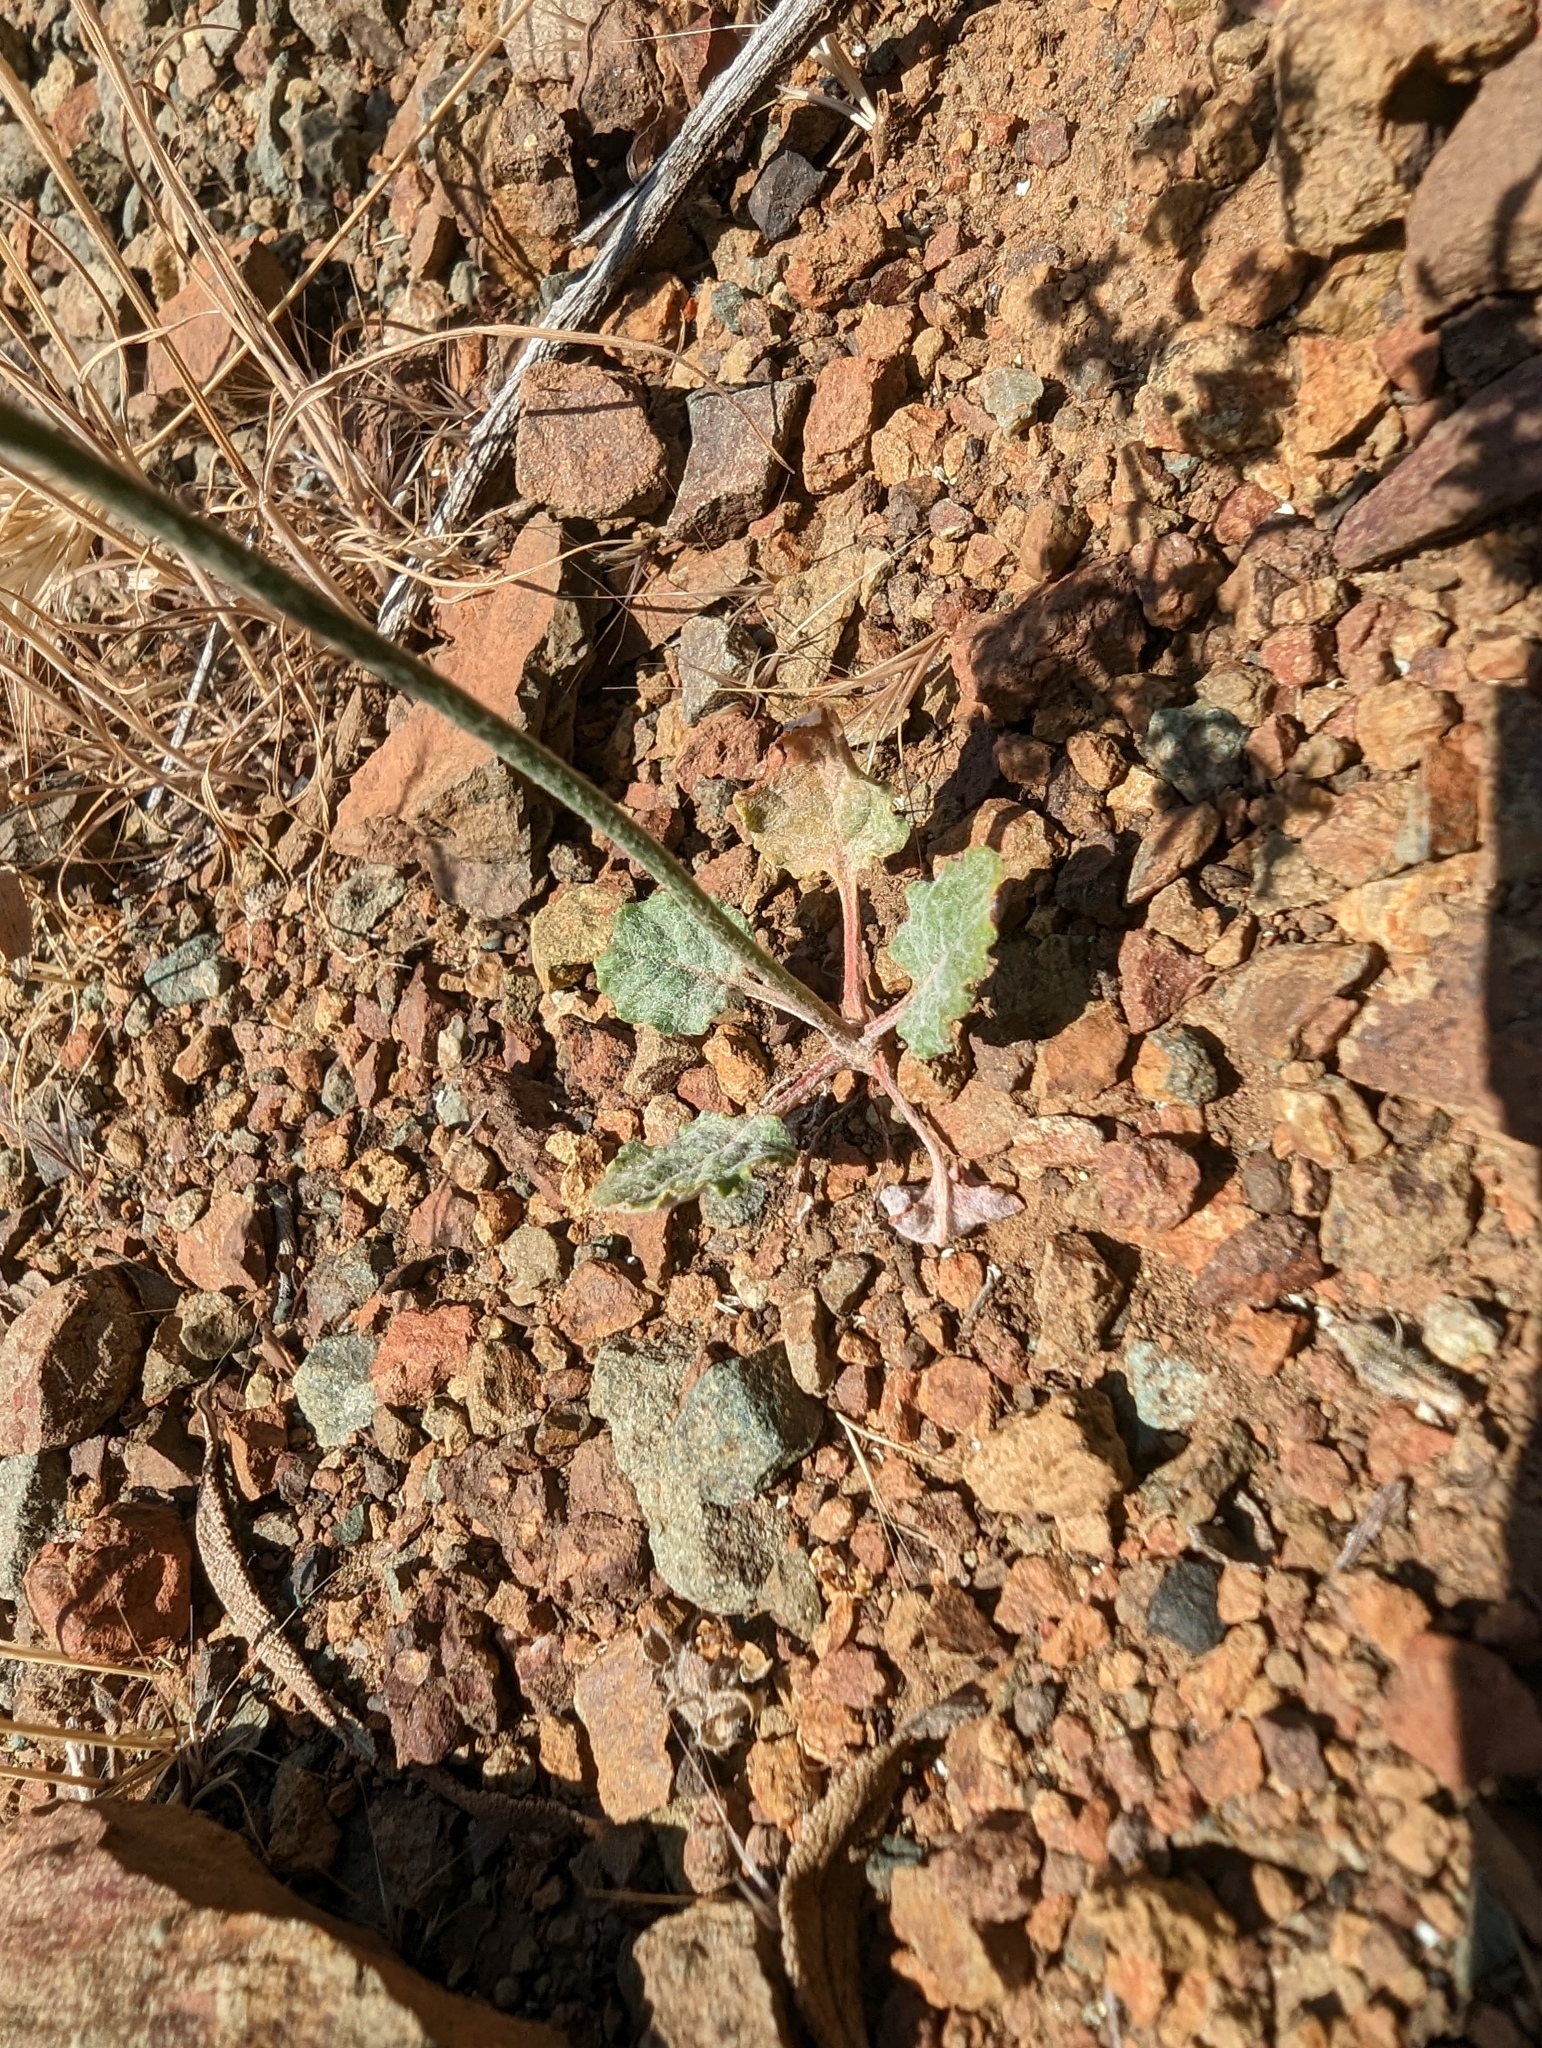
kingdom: Plantae
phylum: Tracheophyta
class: Magnoliopsida
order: Caryophyllales
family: Polygonaceae
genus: Eriogonum
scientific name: Eriogonum luteolum
